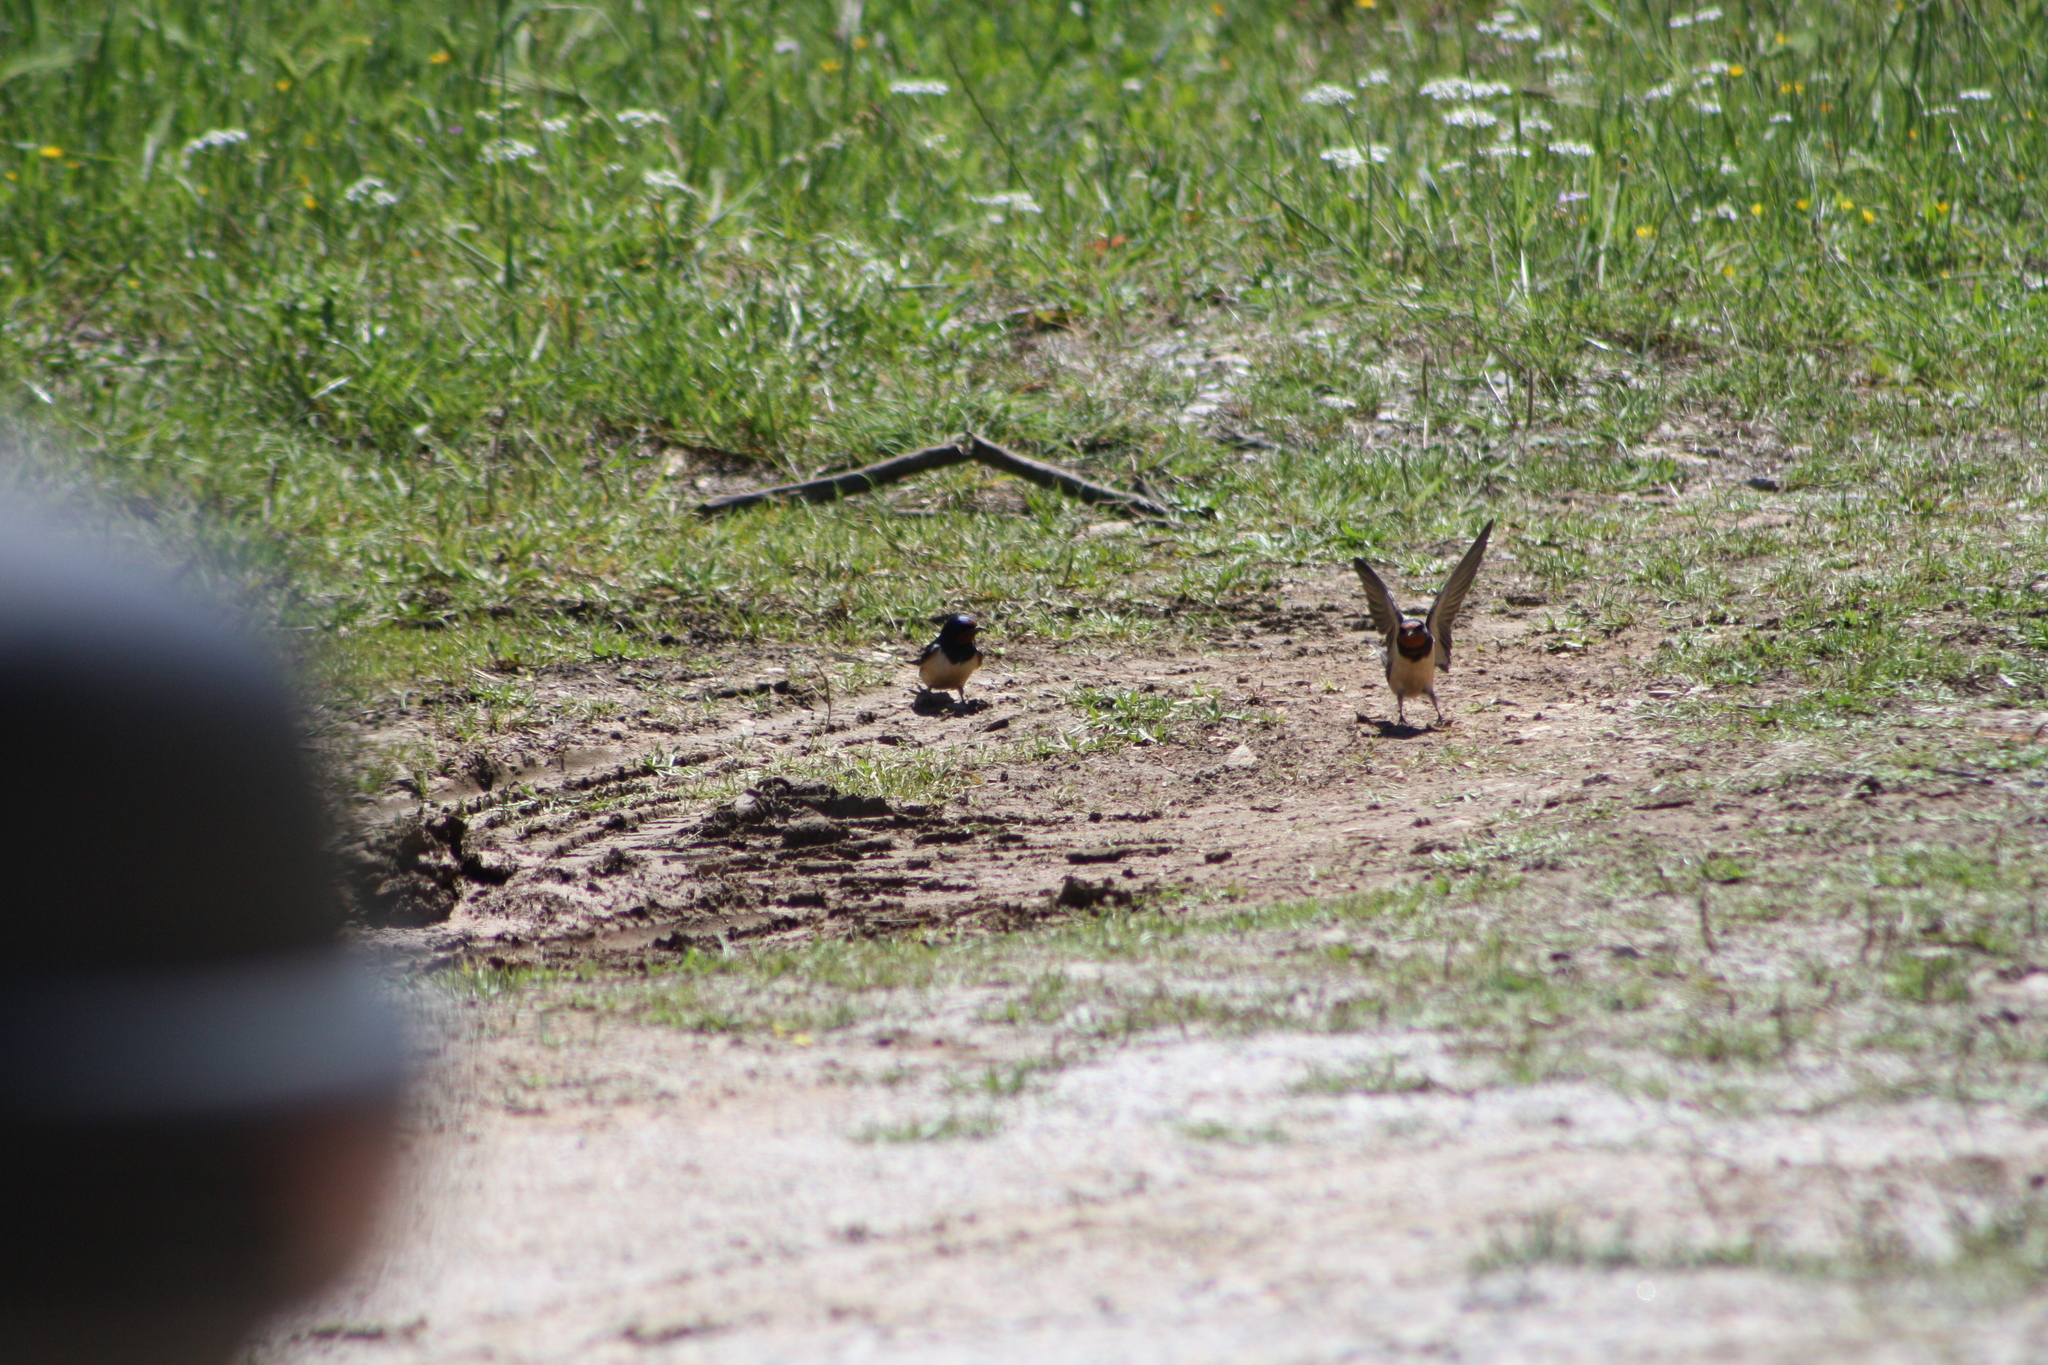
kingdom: Animalia
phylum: Chordata
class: Aves
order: Passeriformes
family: Hirundinidae
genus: Hirundo
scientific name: Hirundo rustica
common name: Barn swallow
